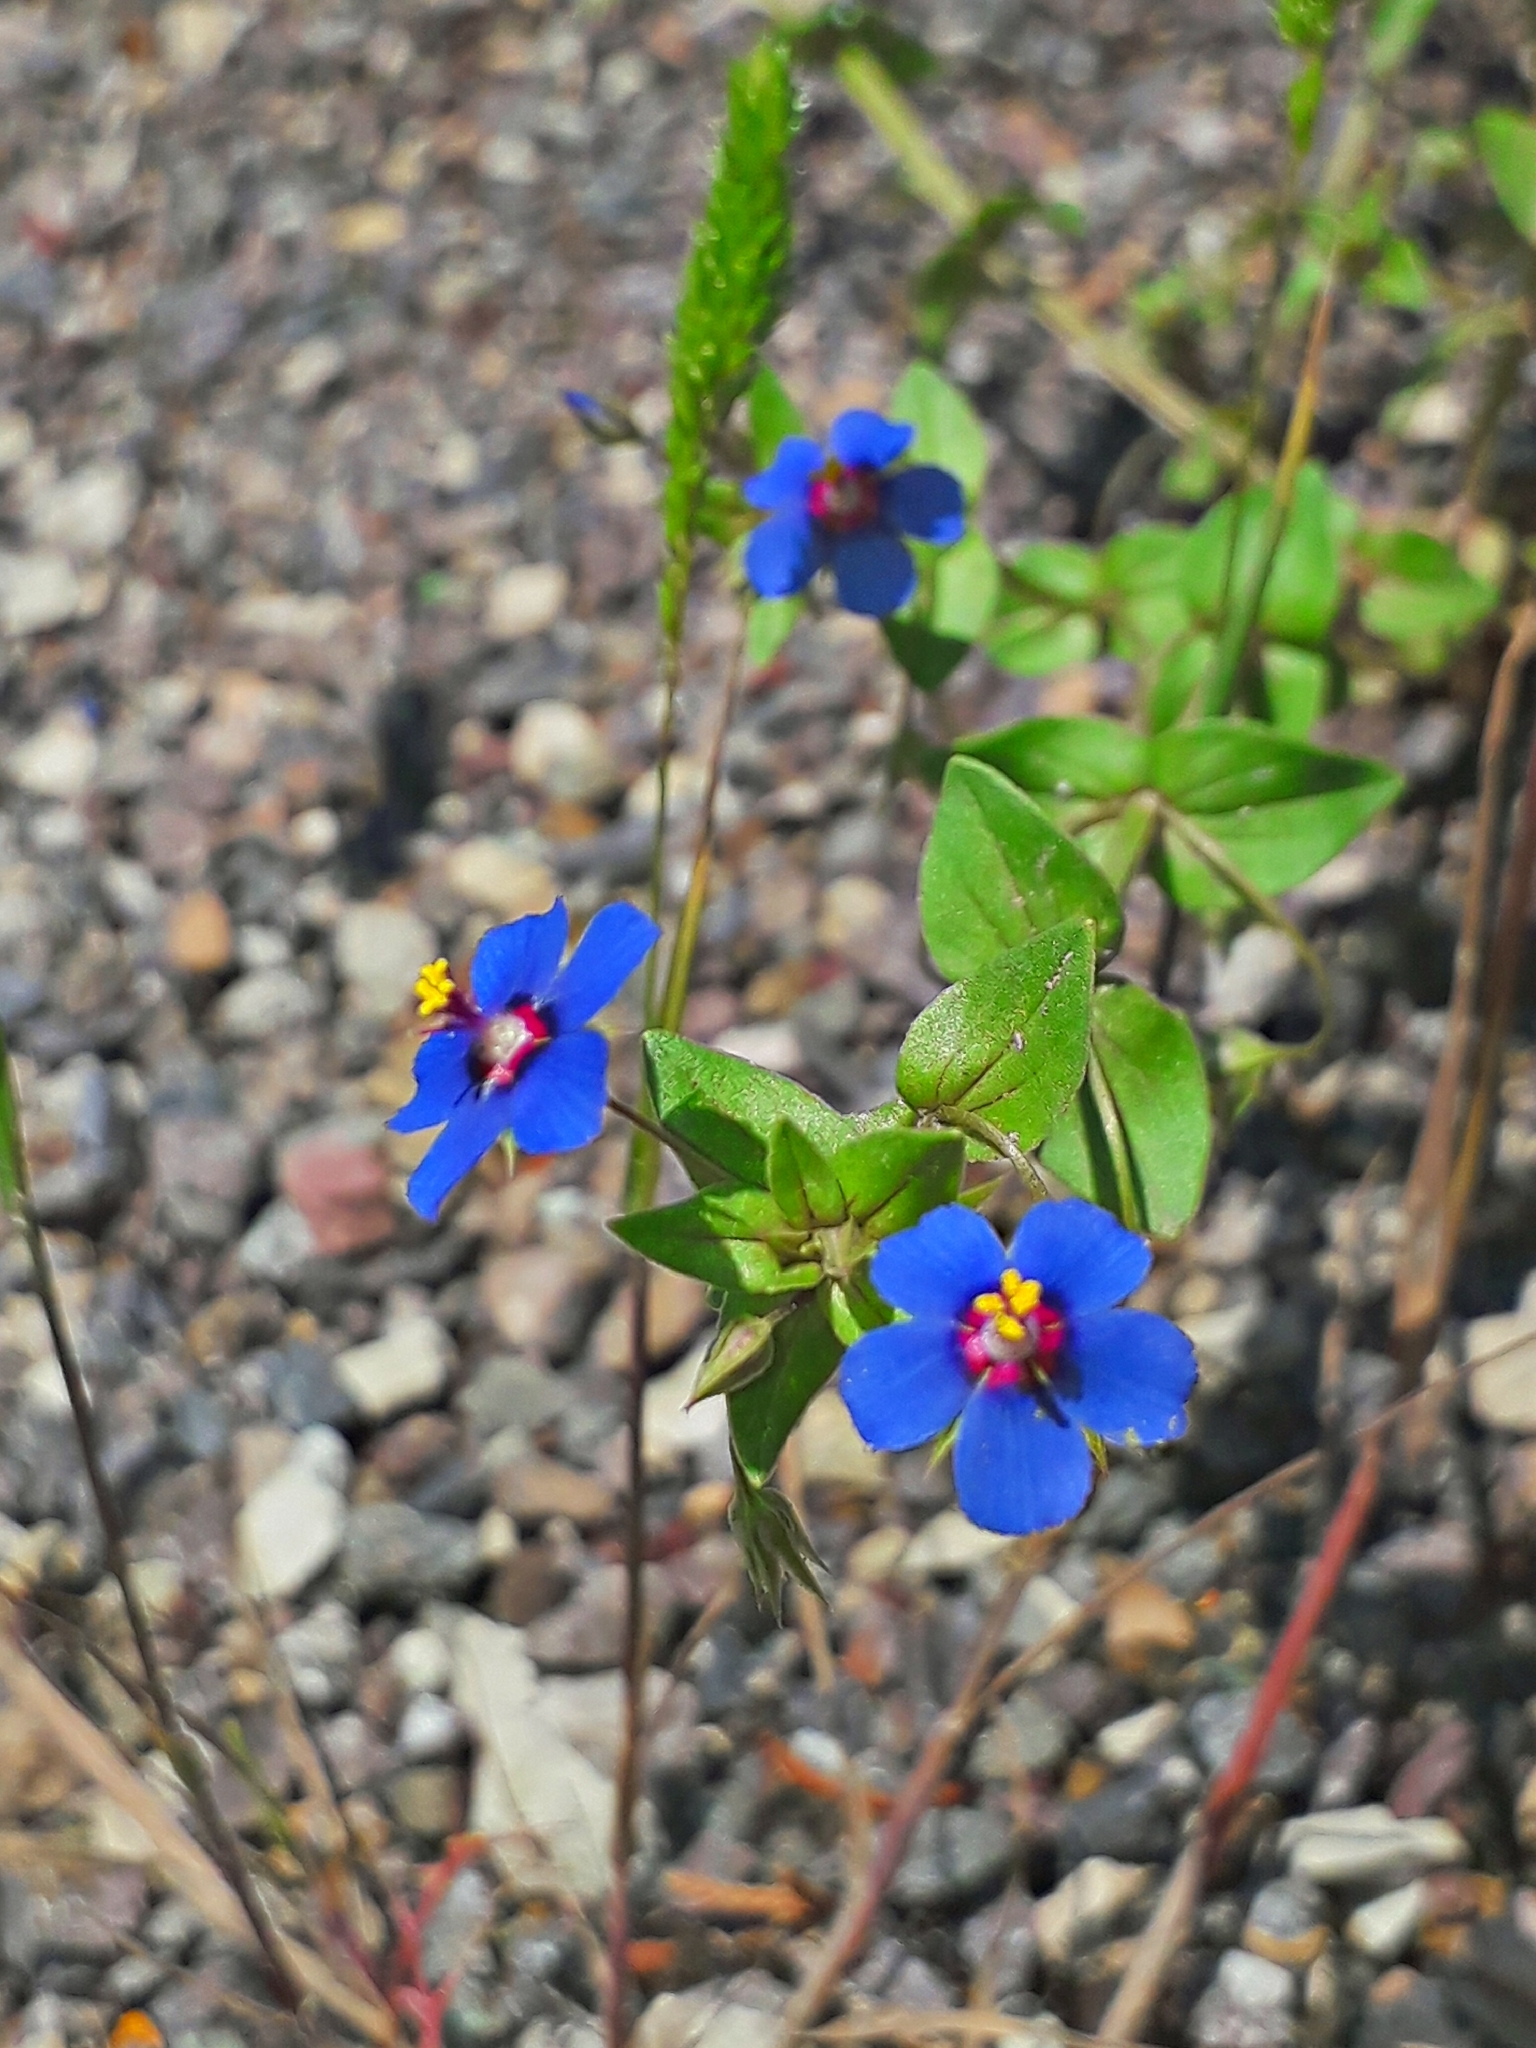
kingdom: Plantae
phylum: Tracheophyta
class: Magnoliopsida
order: Ericales
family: Primulaceae
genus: Lysimachia
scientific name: Lysimachia foemina
